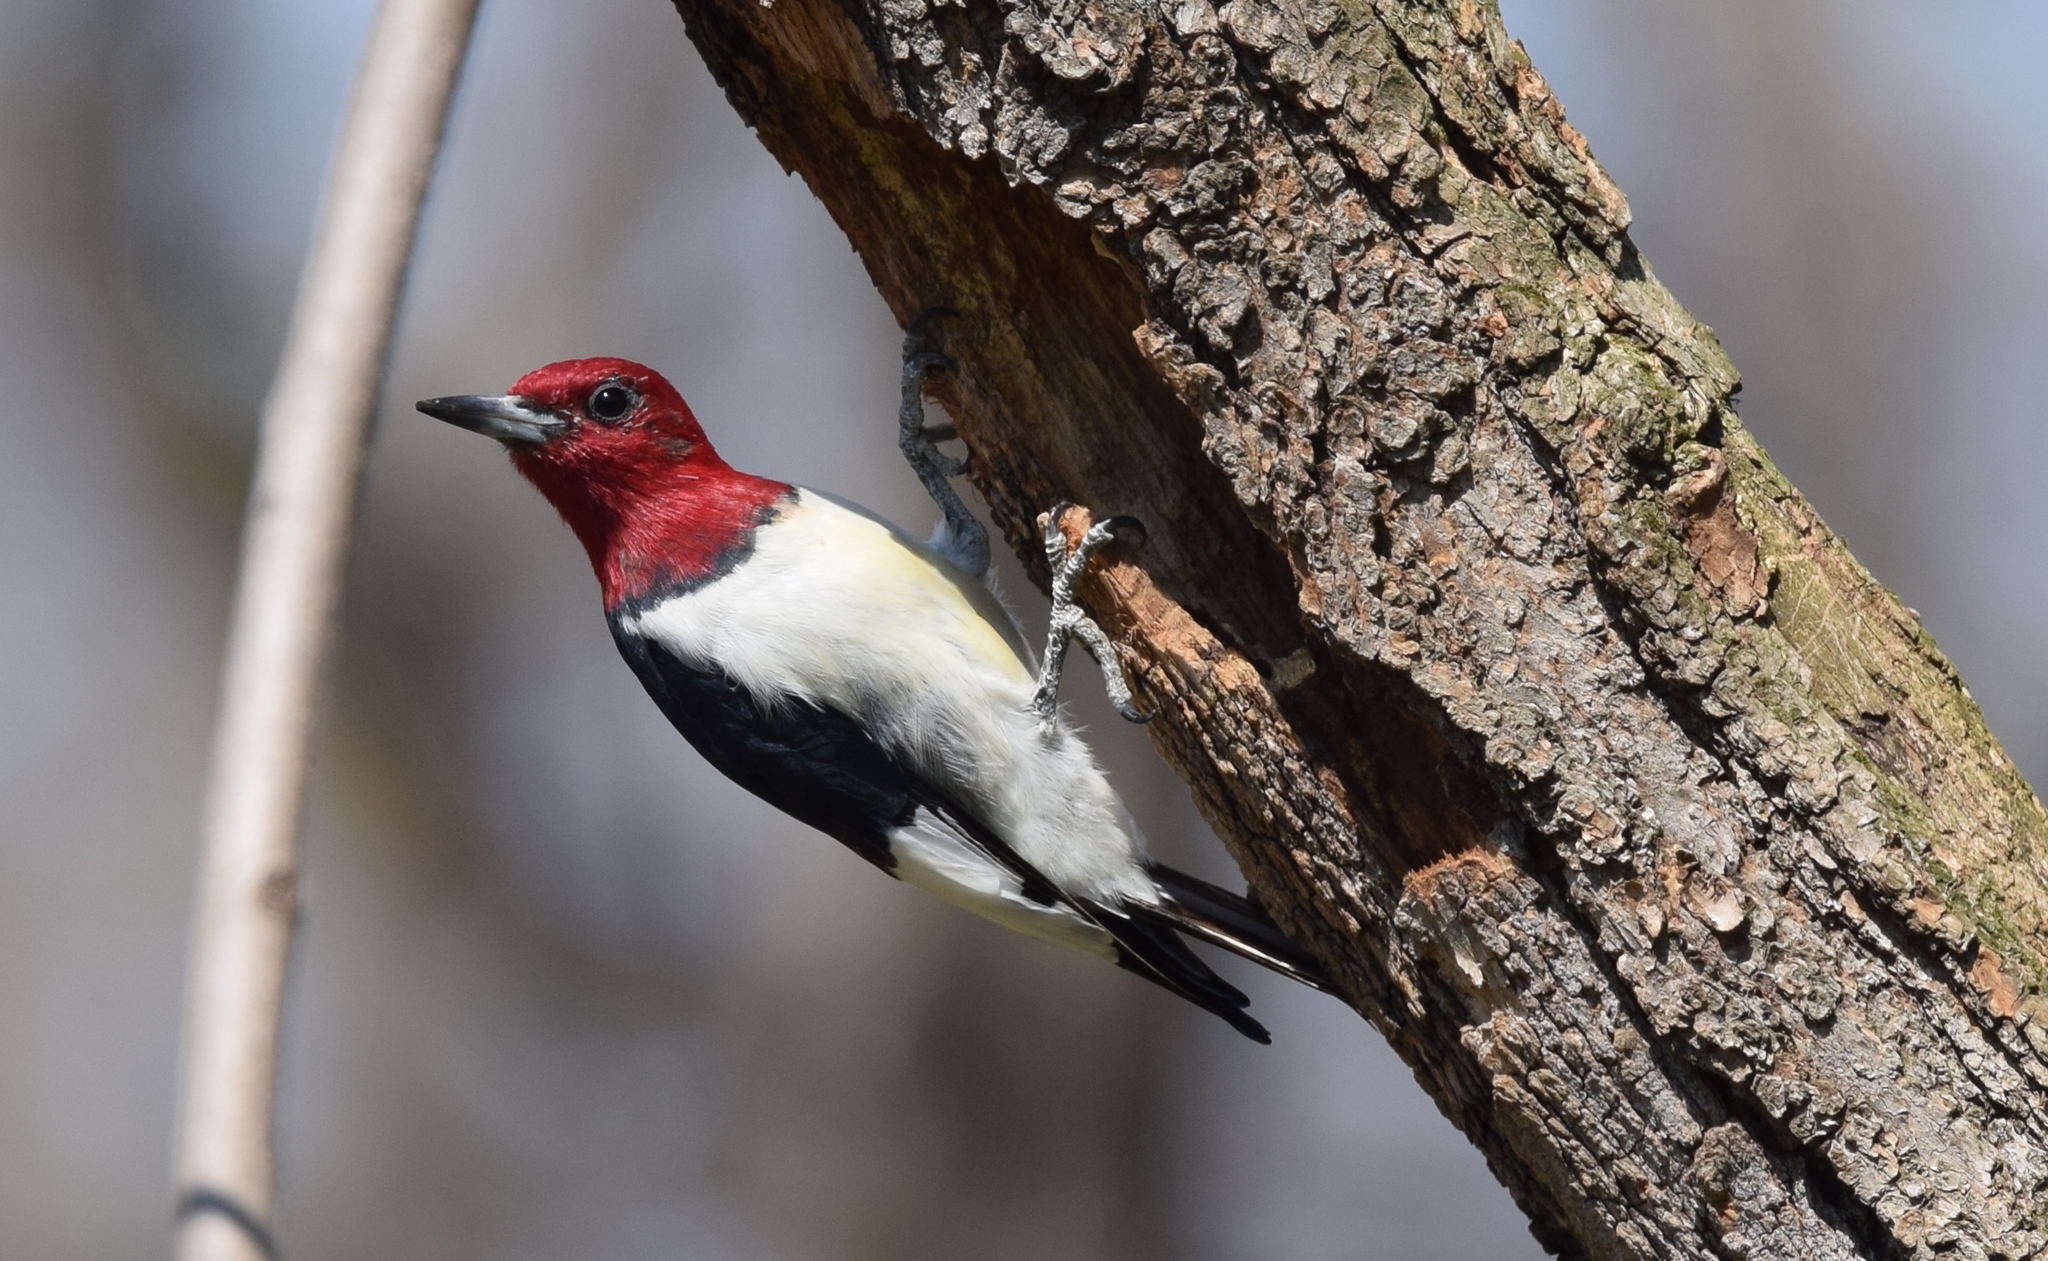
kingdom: Animalia
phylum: Chordata
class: Aves
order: Piciformes
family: Picidae
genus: Melanerpes
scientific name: Melanerpes erythrocephalus
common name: Red-headed woodpecker
